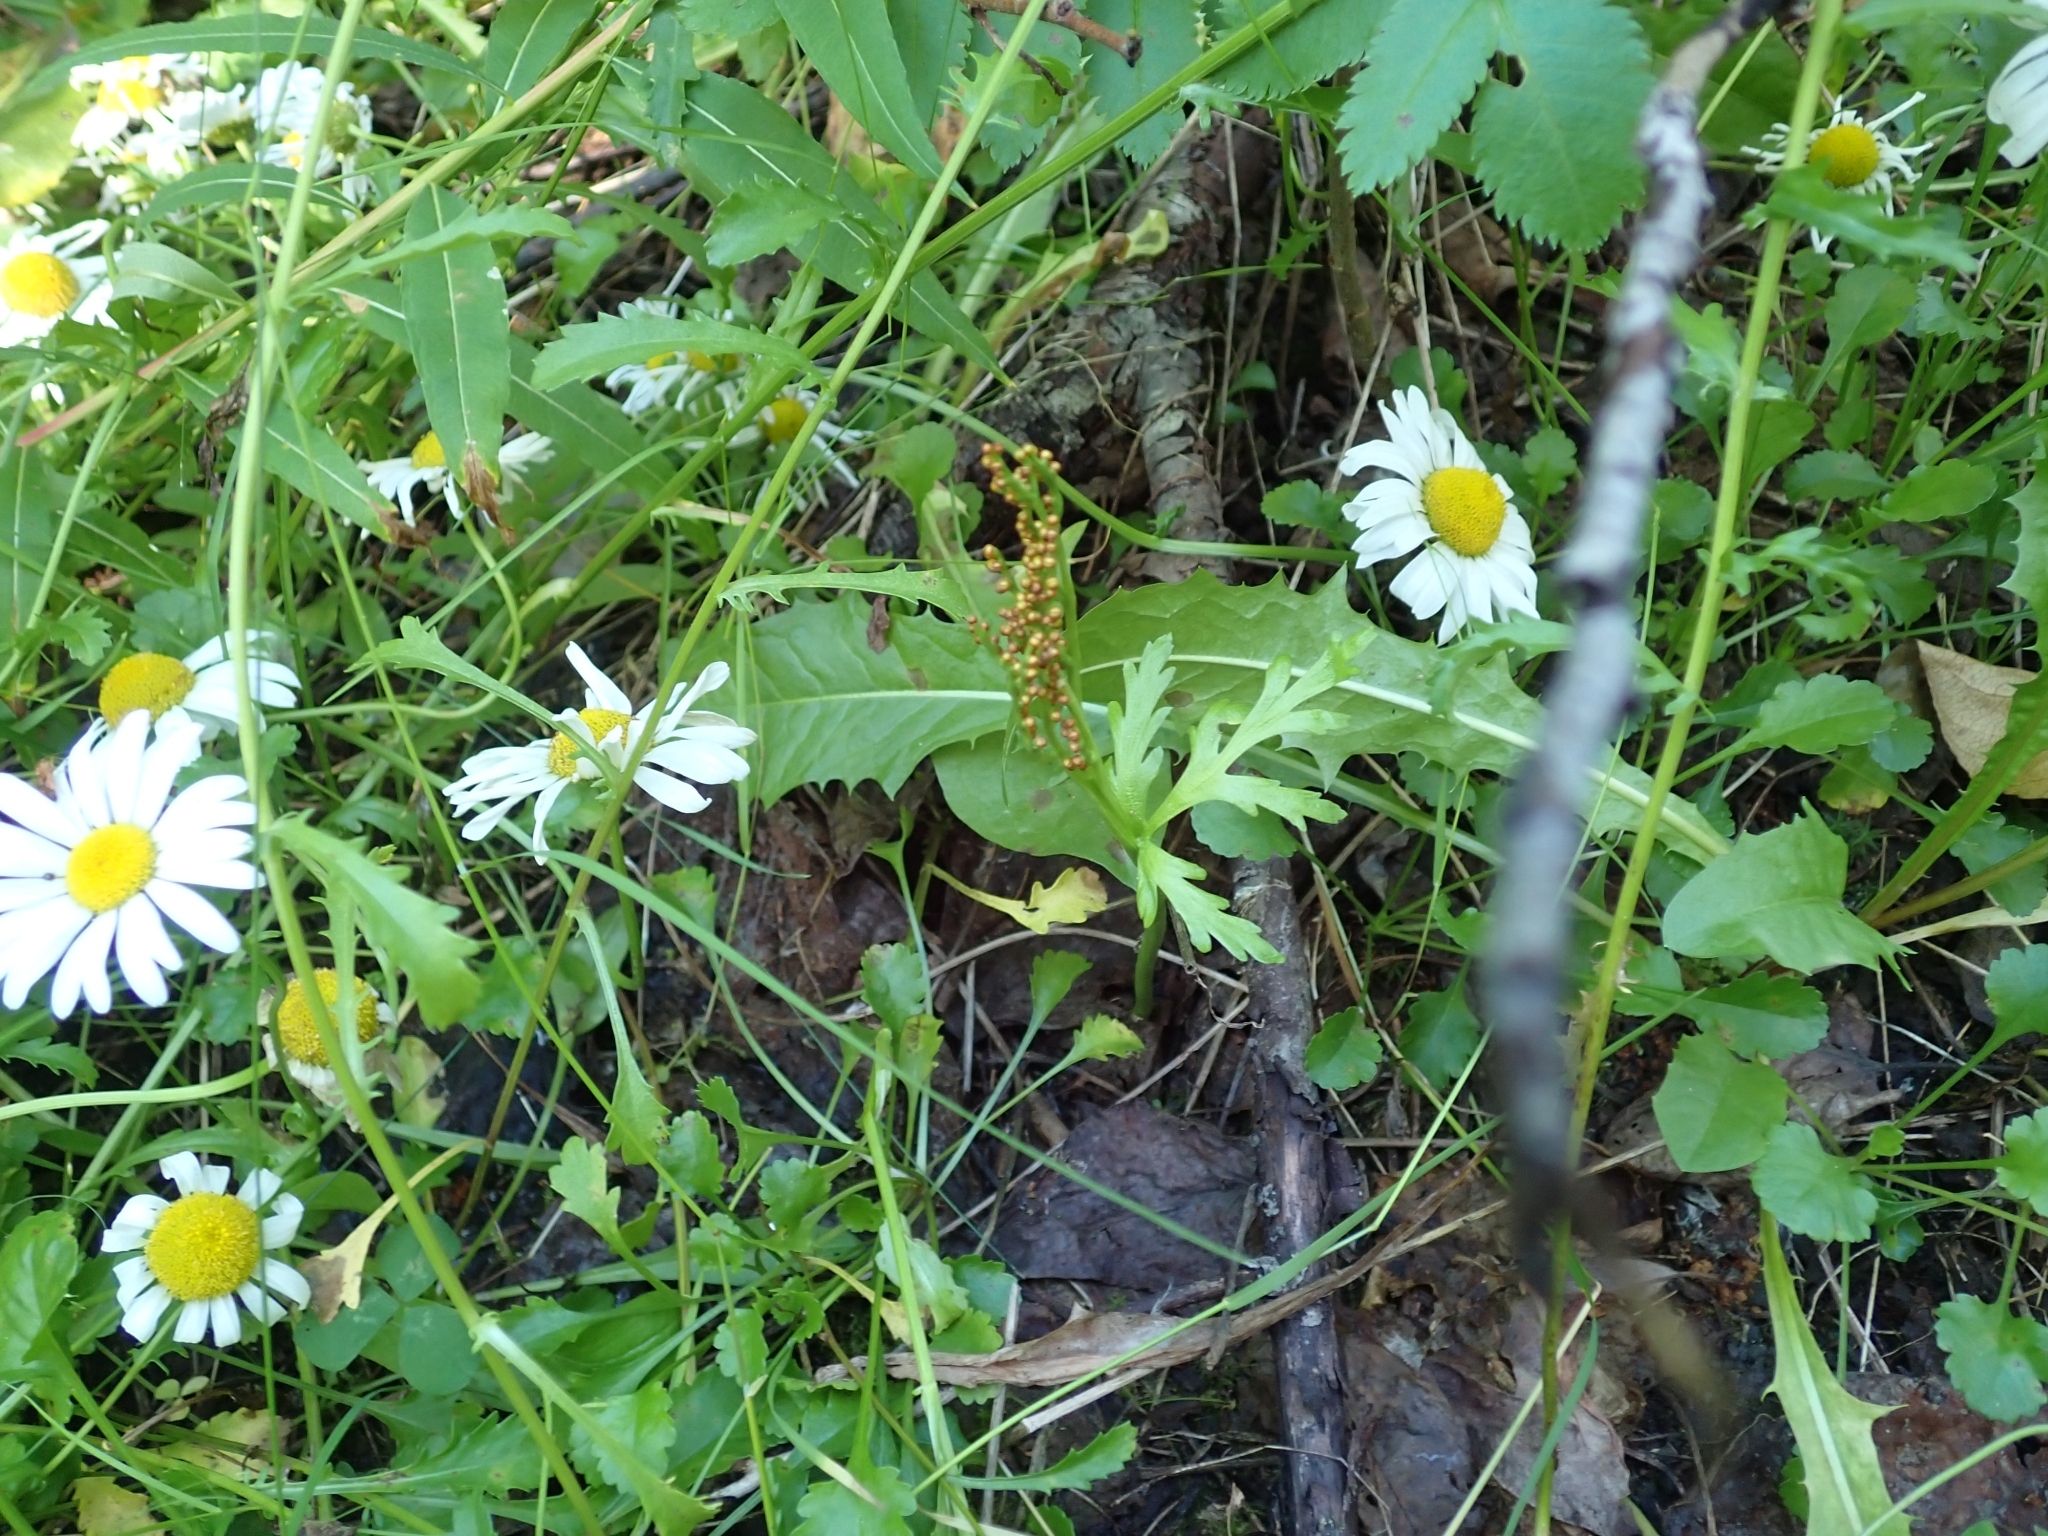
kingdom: Plantae
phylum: Tracheophyta
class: Polypodiopsida
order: Ophioglossales
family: Ophioglossaceae
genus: Botrychium
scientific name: Botrychium lanceolatum
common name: Lance-leaved moonwort
